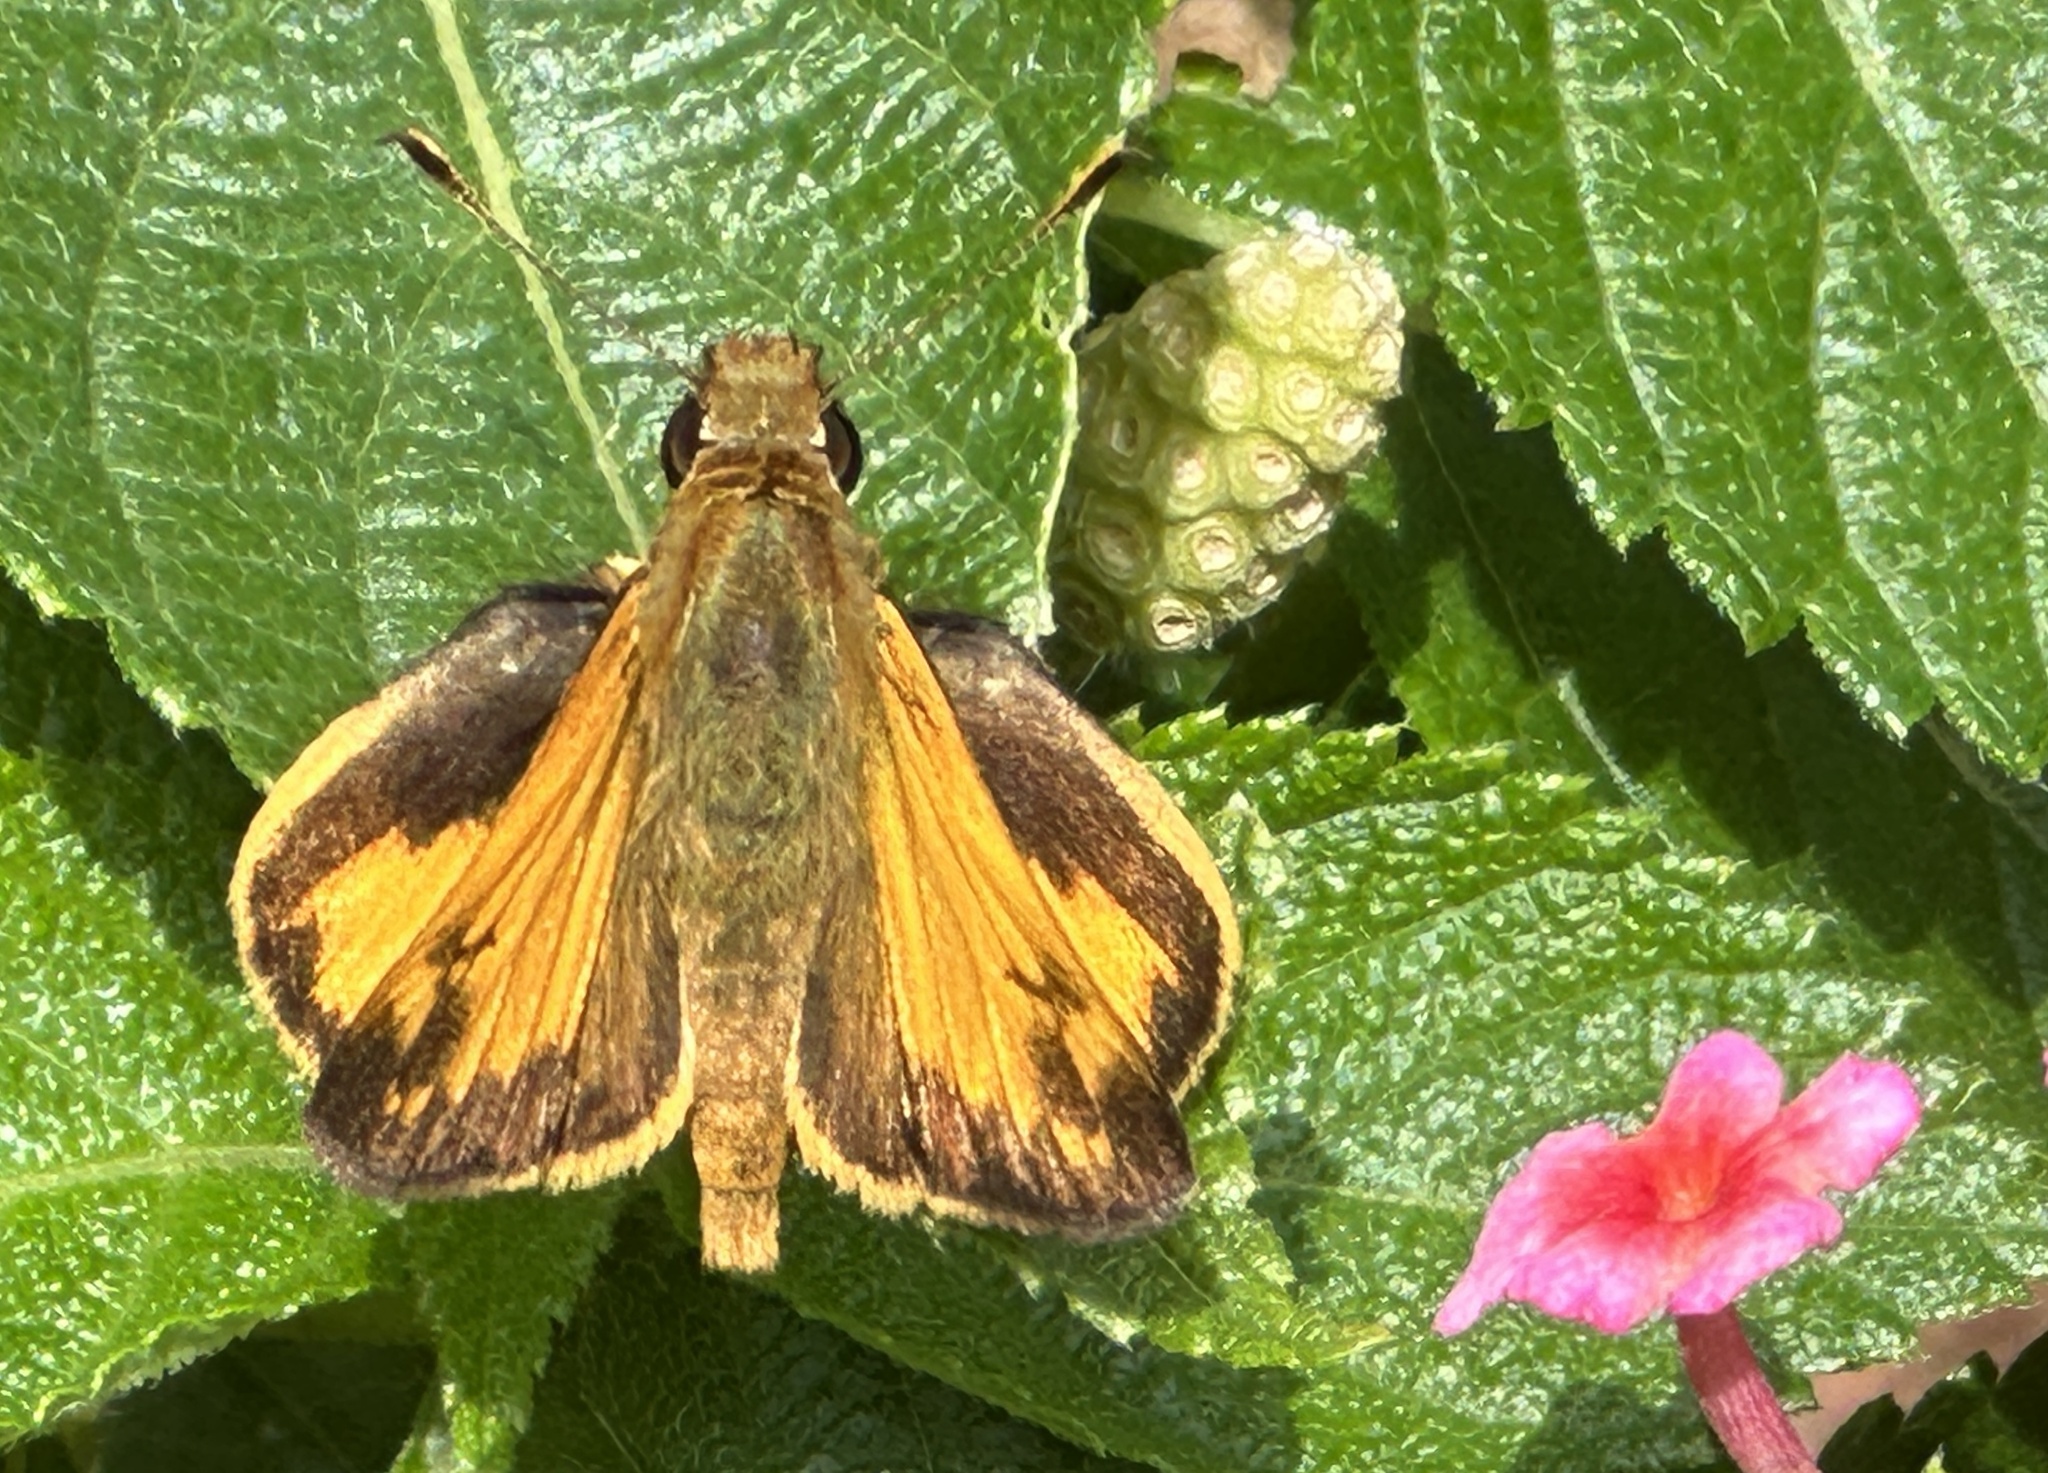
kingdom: Animalia
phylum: Arthropoda
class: Insecta
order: Lepidoptera
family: Hesperiidae
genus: Lon
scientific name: Lon zabulon
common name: Zabulon skipper
